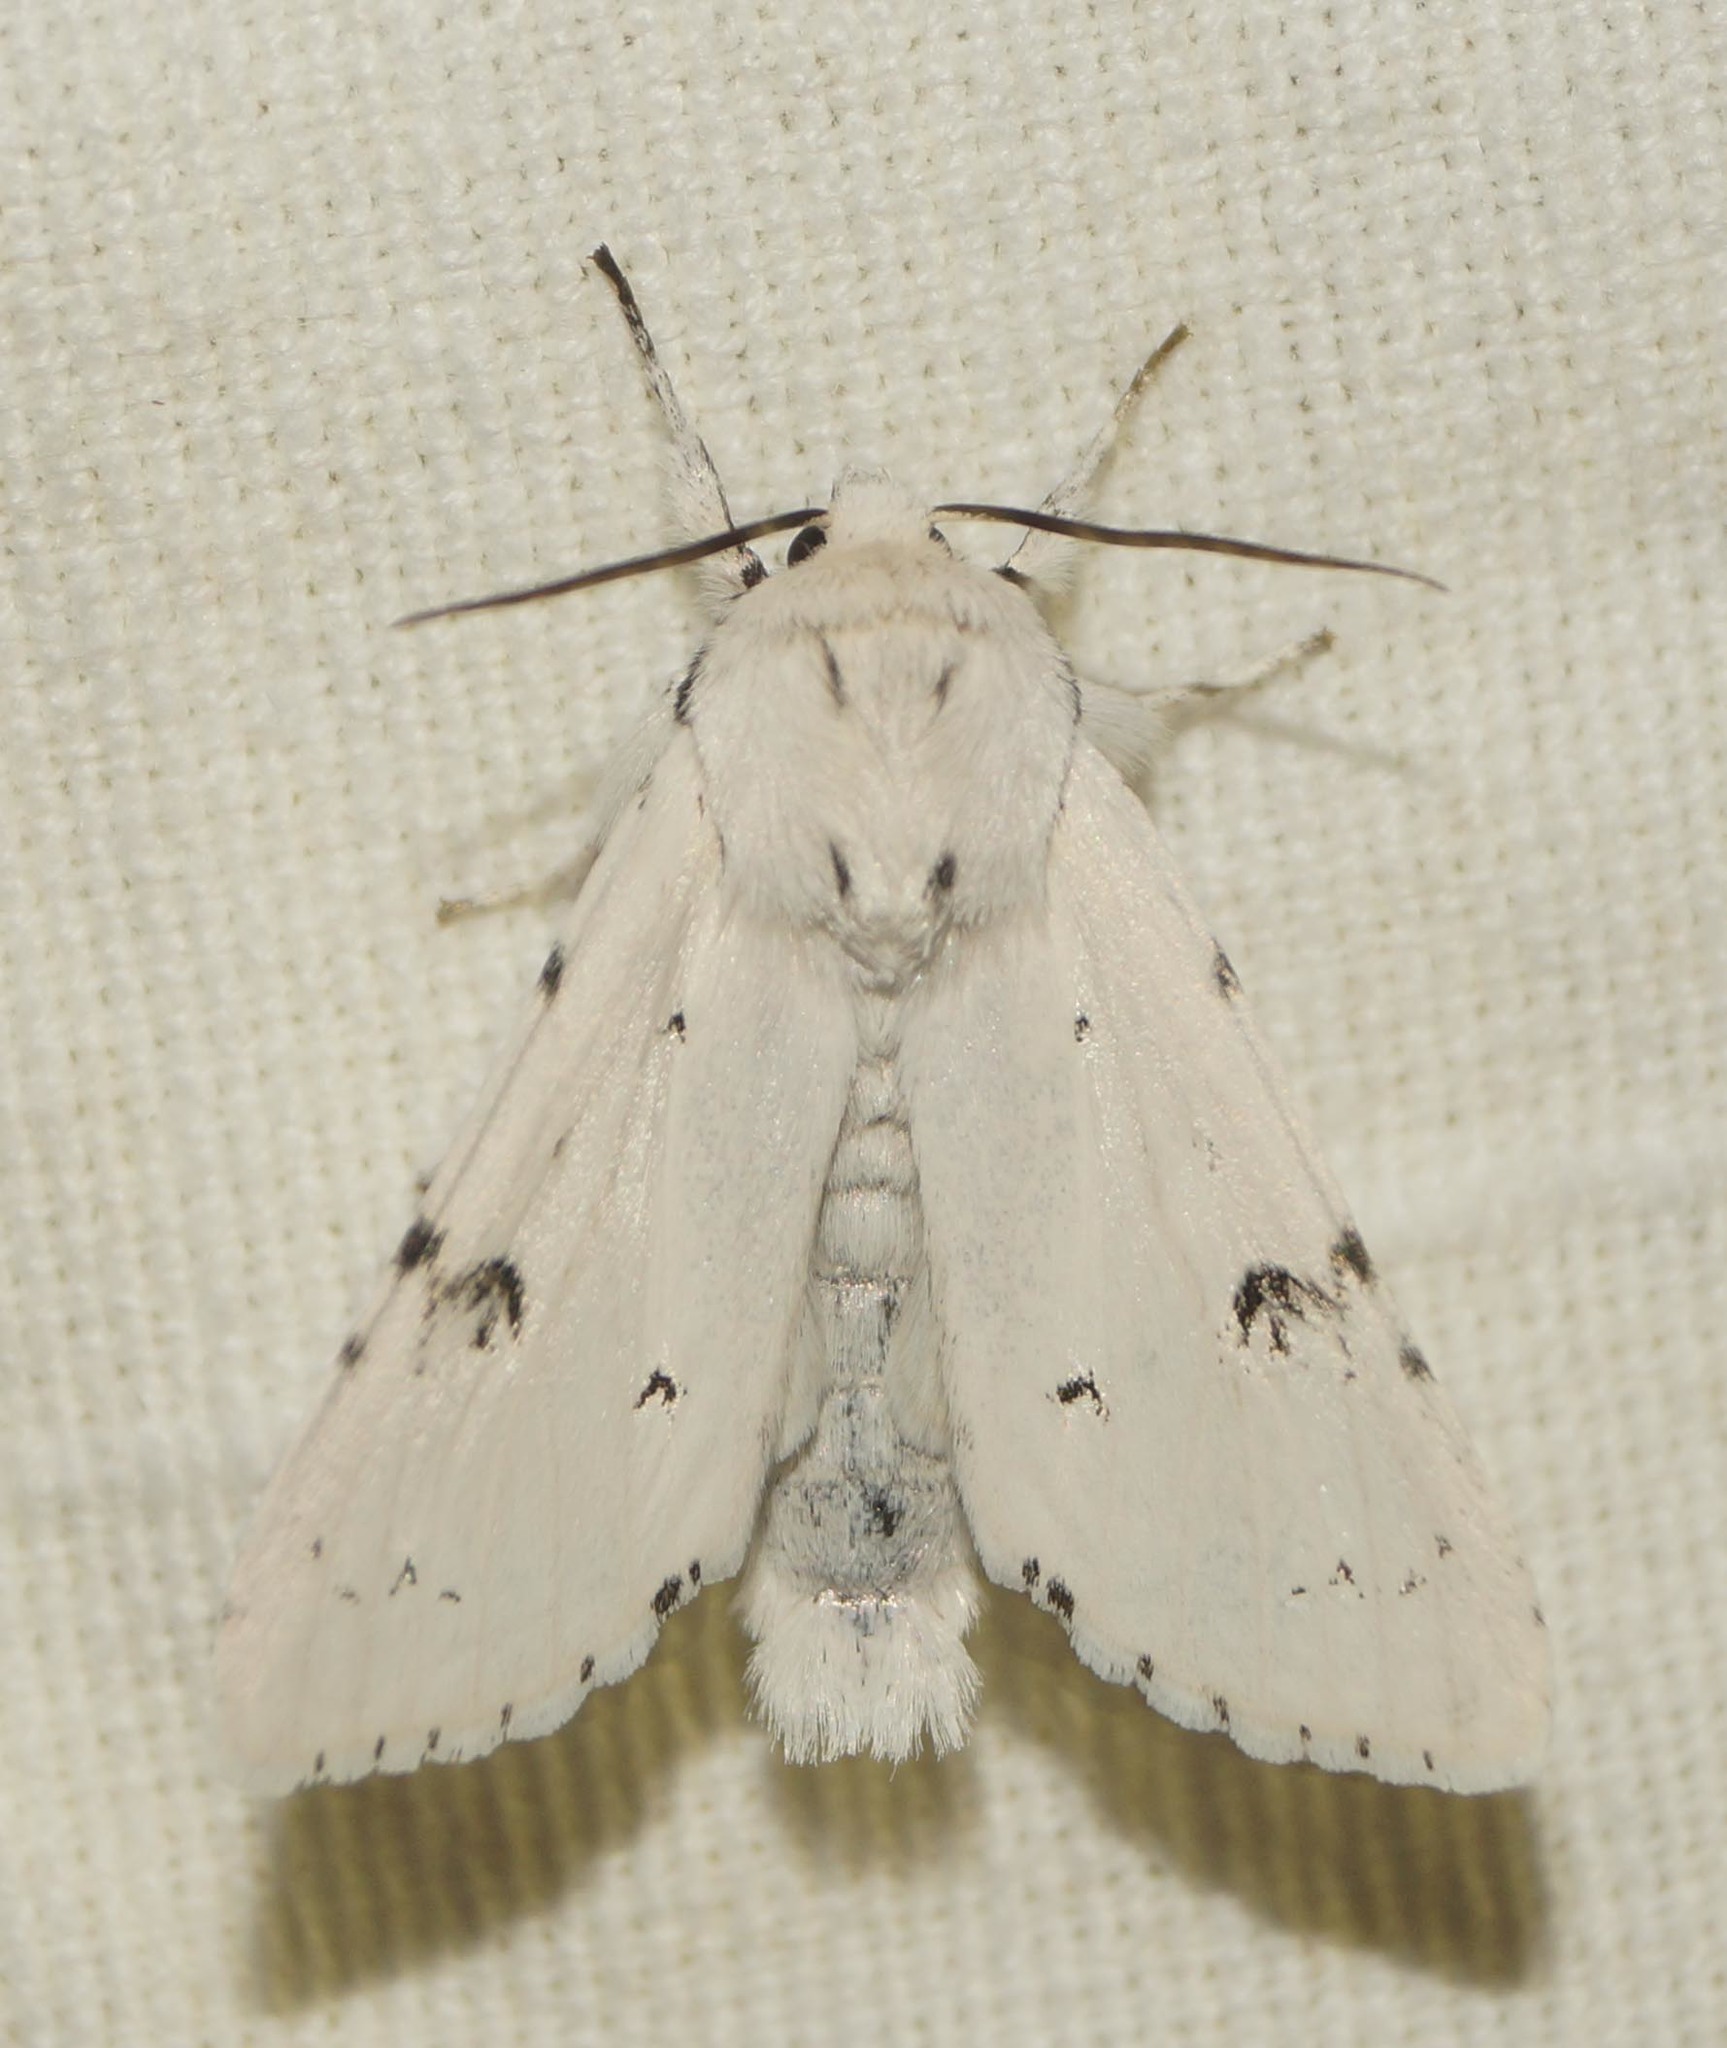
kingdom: Animalia
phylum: Arthropoda
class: Insecta
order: Lepidoptera
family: Noctuidae
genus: Acronicta
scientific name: Acronicta leporina
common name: Miller
